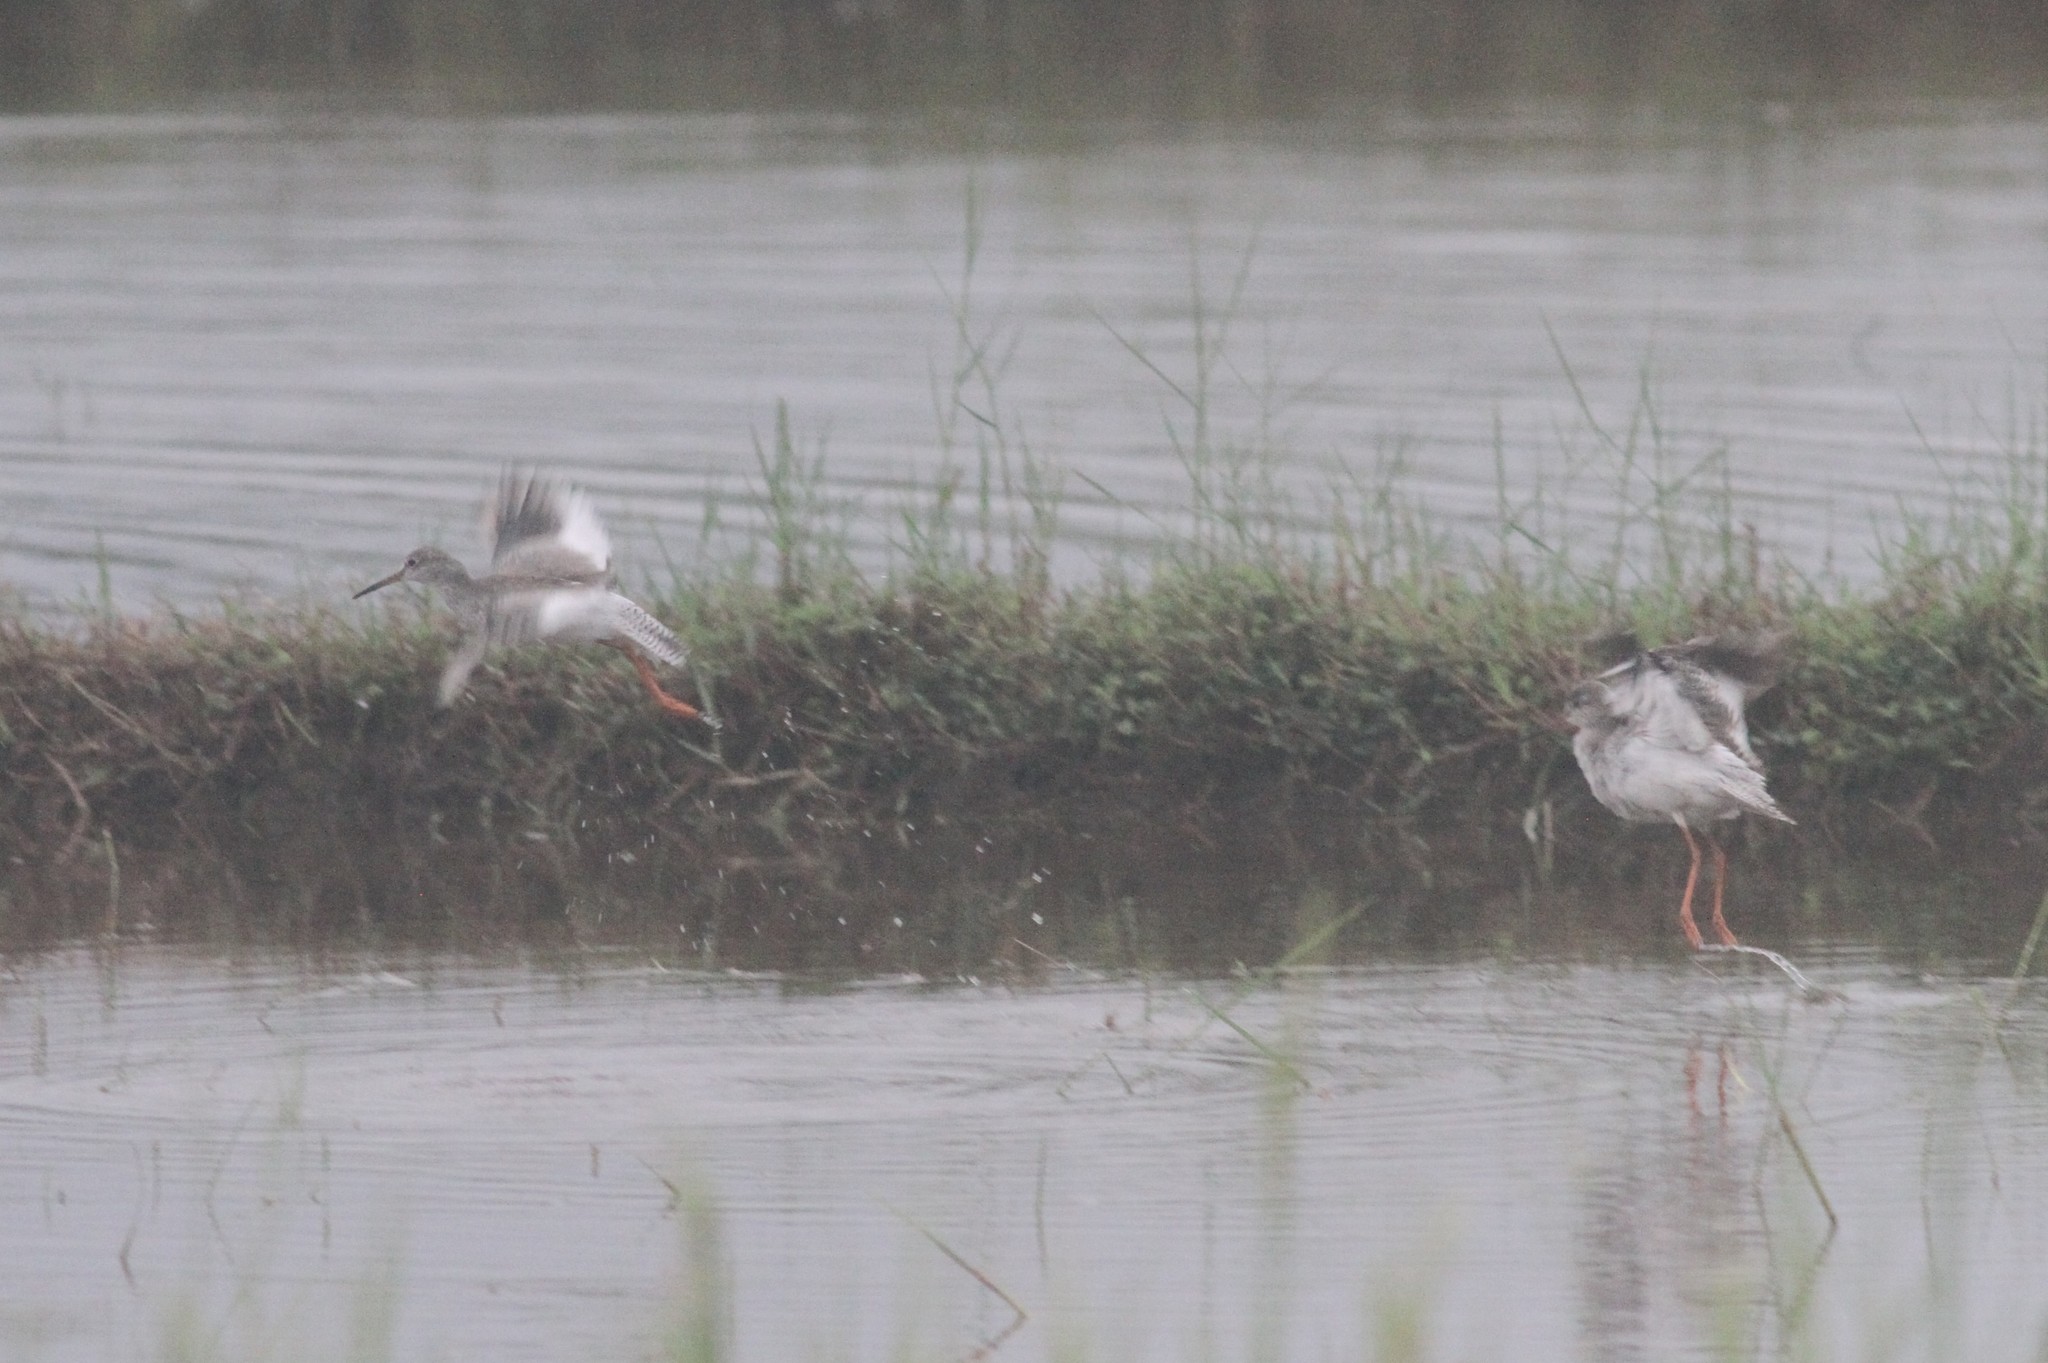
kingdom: Animalia
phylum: Chordata
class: Aves
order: Charadriiformes
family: Scolopacidae
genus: Tringa
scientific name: Tringa totanus
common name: Common redshank
